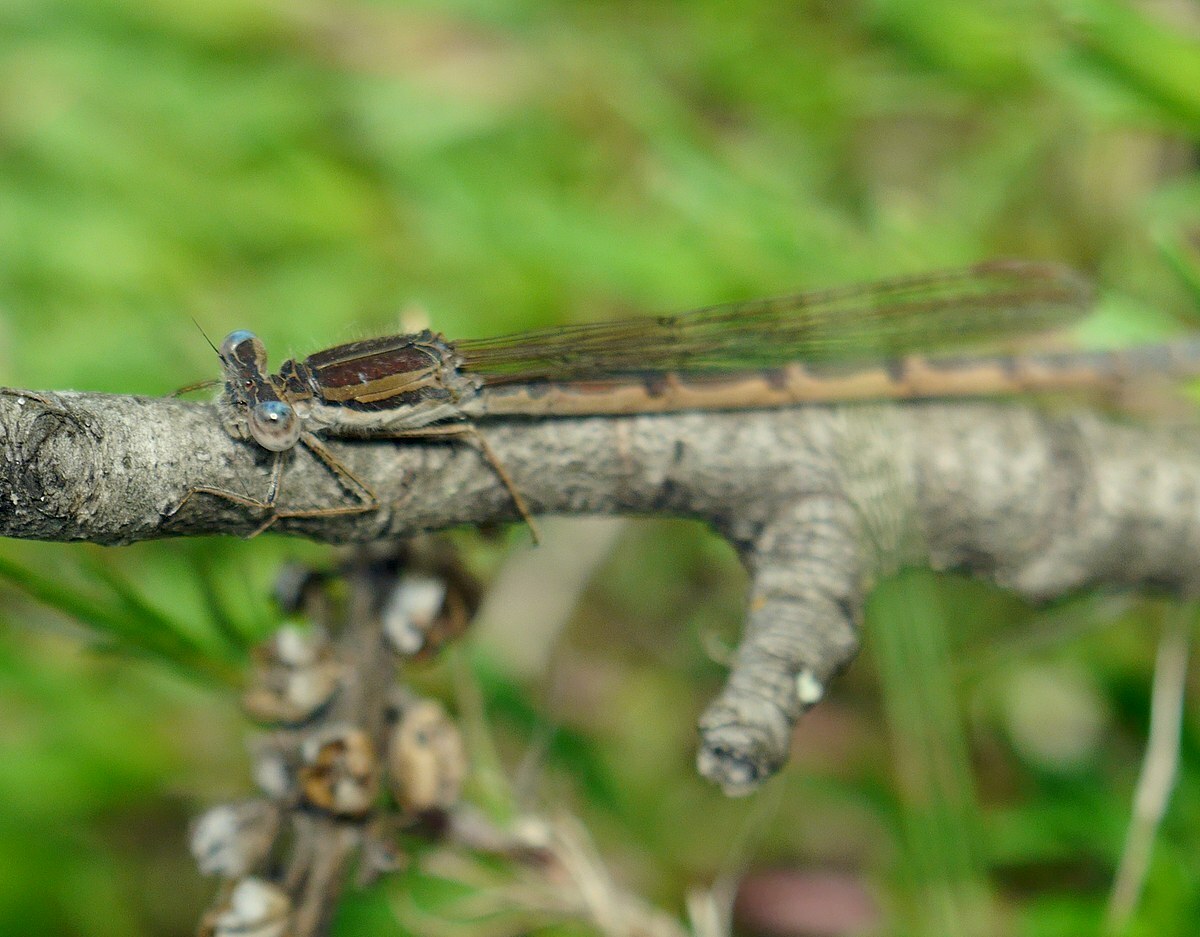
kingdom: Animalia
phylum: Arthropoda
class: Insecta
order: Odonata
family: Lestidae
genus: Sympecma
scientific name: Sympecma fusca
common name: Common winter damsel
